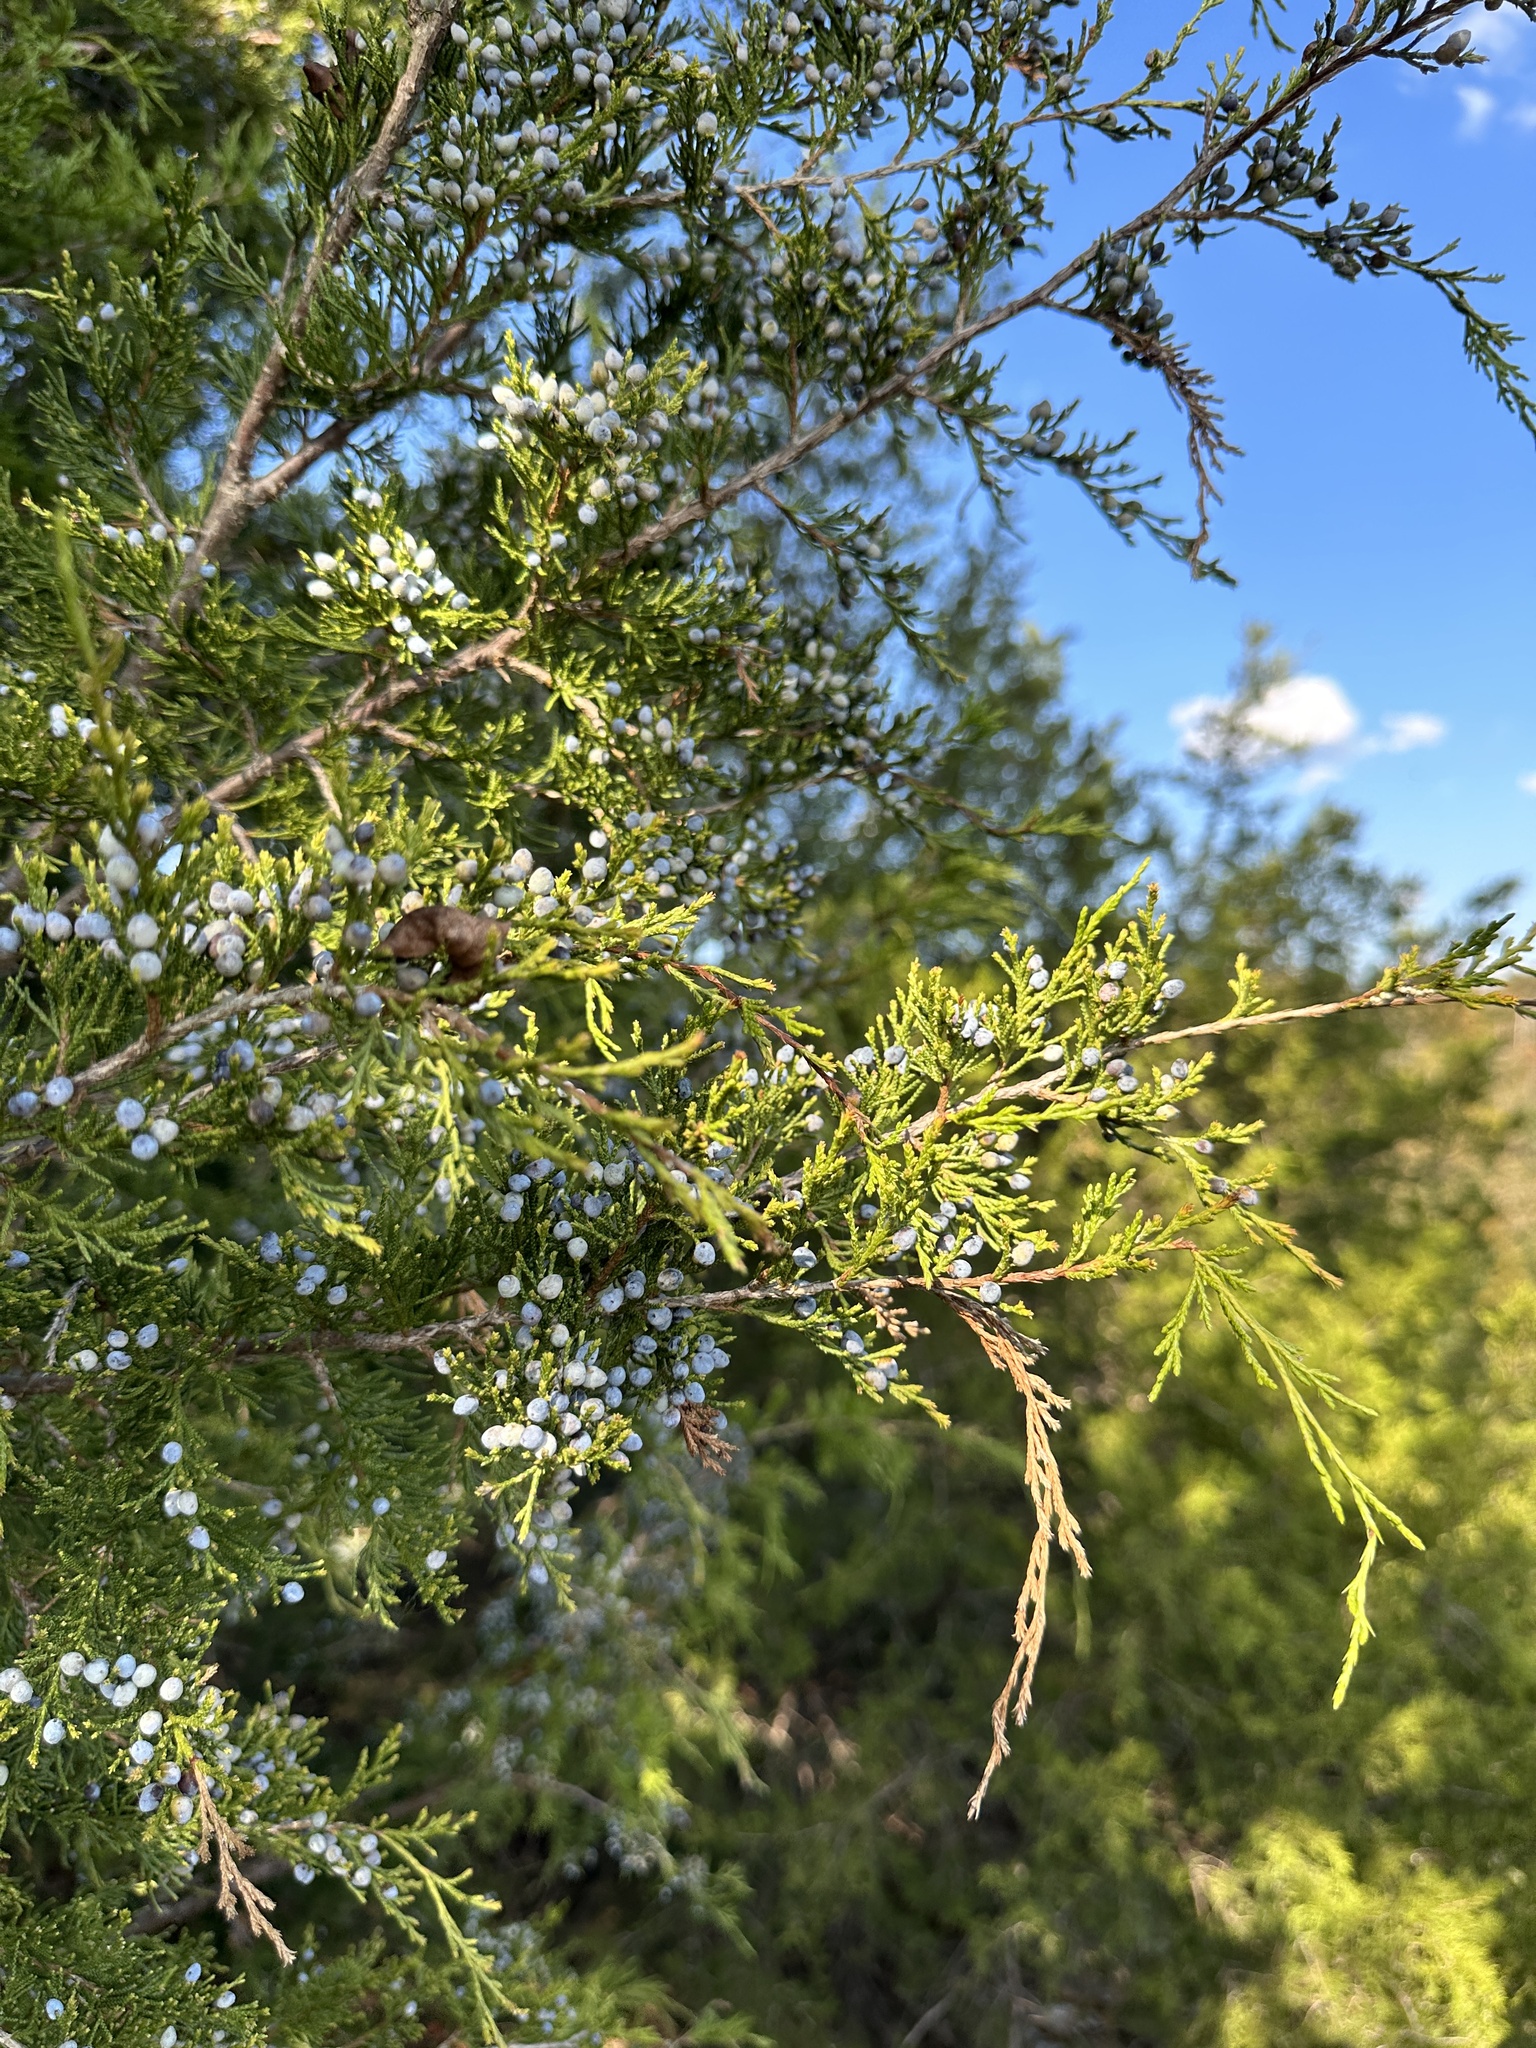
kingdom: Plantae
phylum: Tracheophyta
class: Pinopsida
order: Pinales
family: Cupressaceae
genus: Juniperus
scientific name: Juniperus virginiana
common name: Red juniper
